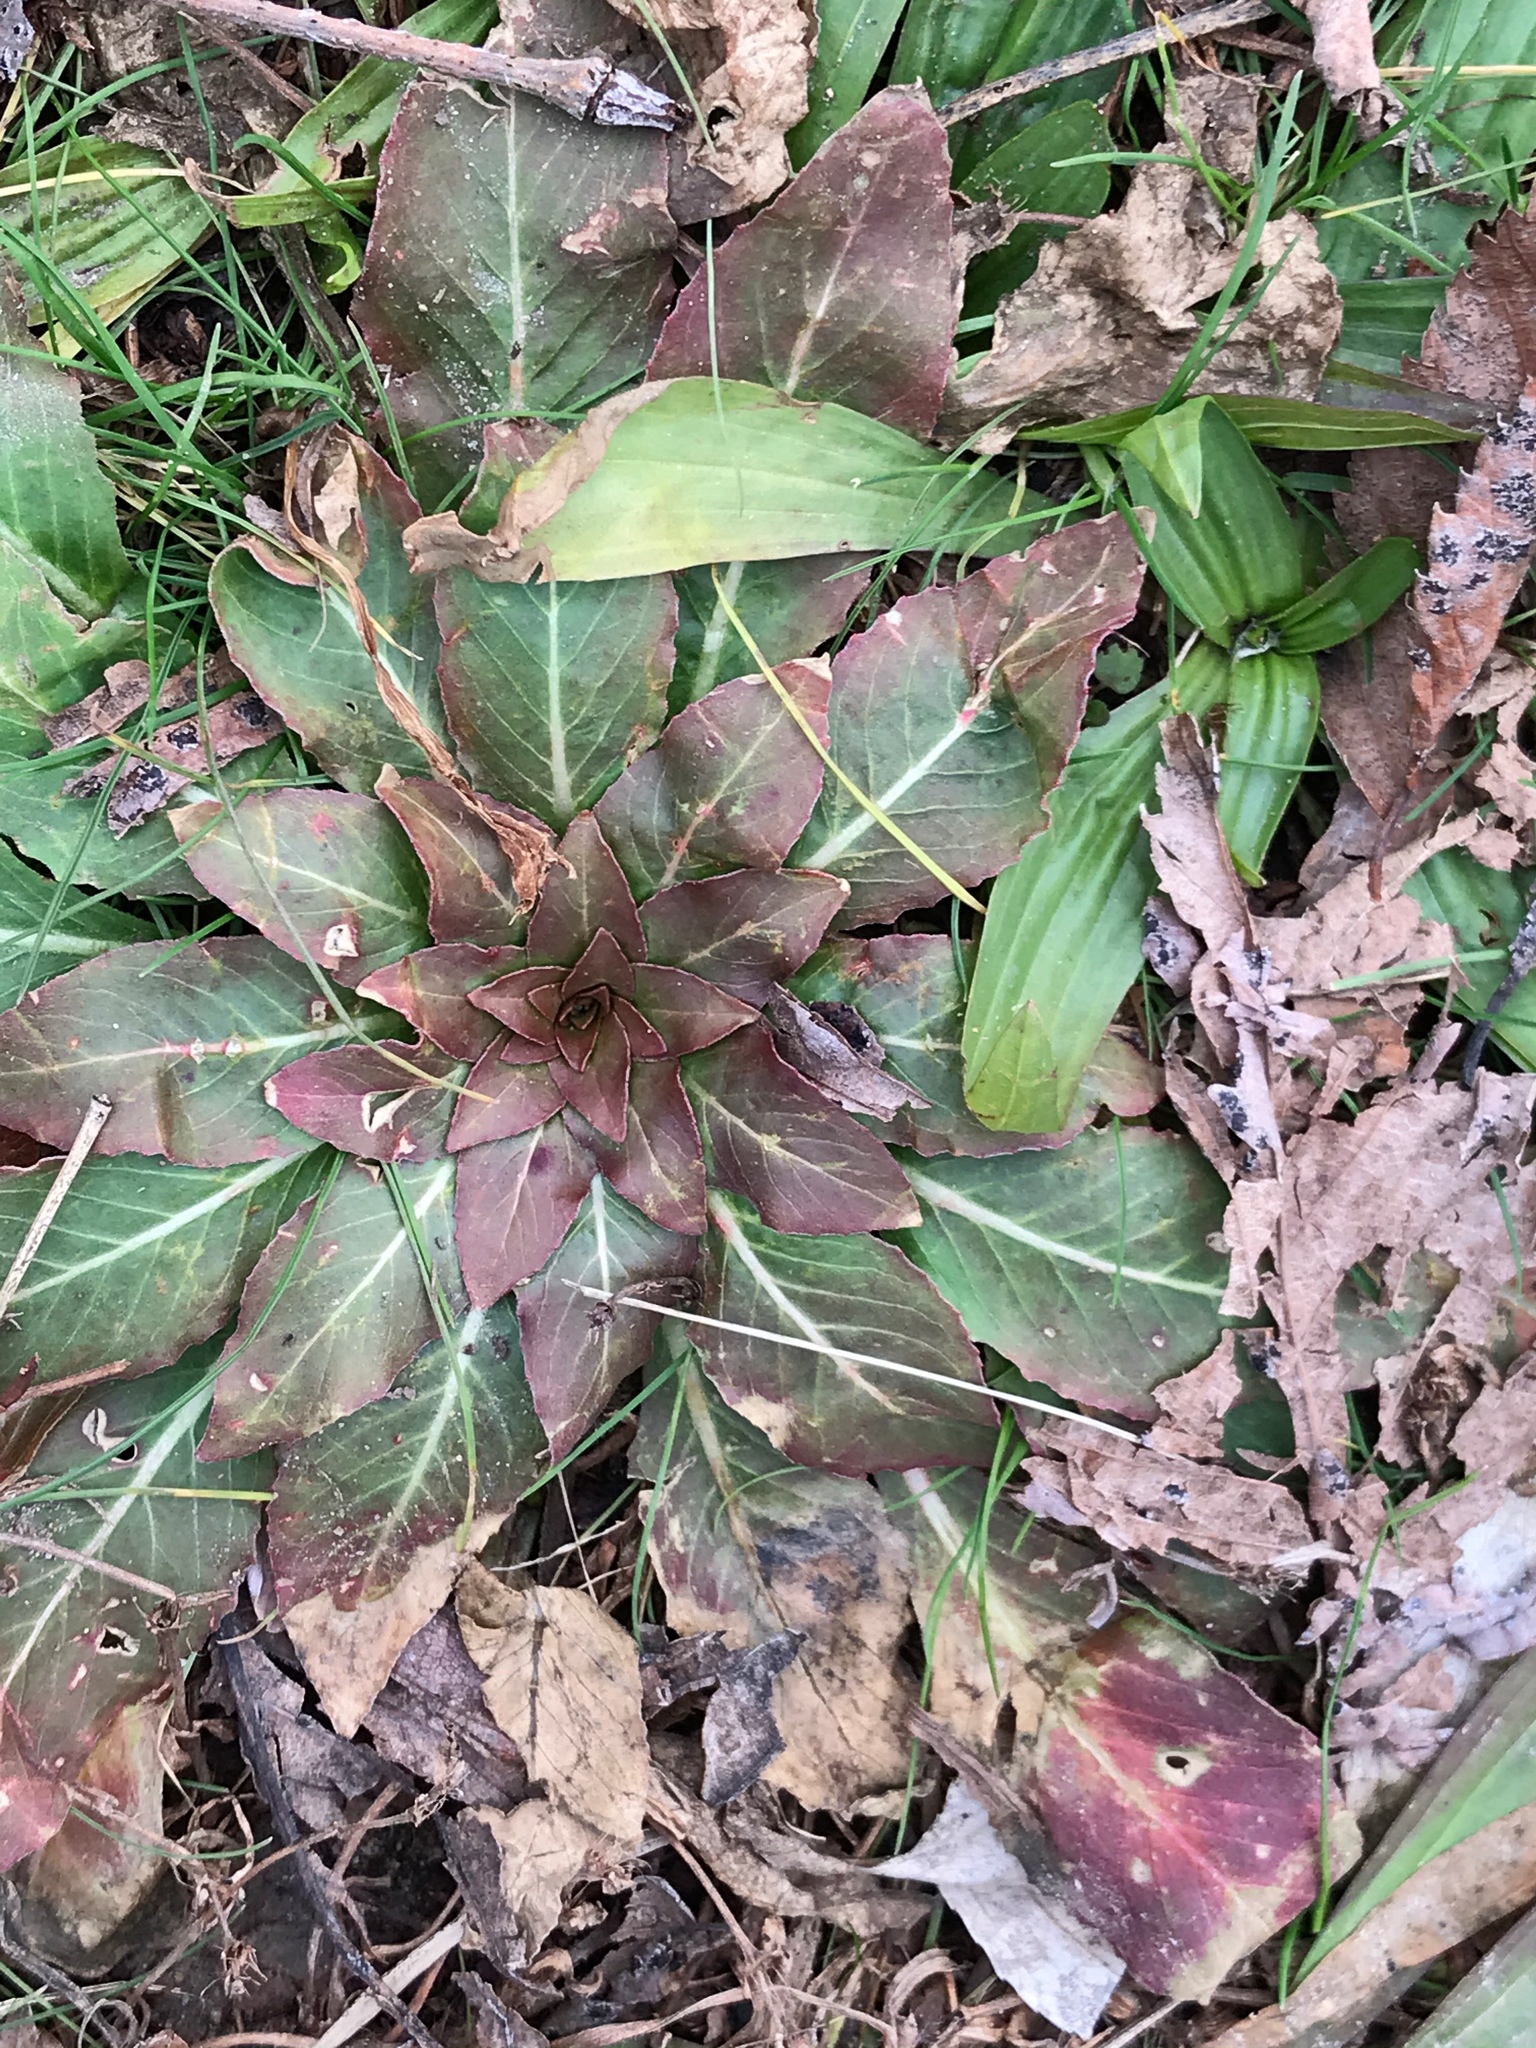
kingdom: Plantae
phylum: Tracheophyta
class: Magnoliopsida
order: Myrtales
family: Onagraceae
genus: Oenothera
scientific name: Oenothera biennis
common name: Common evening-primrose
